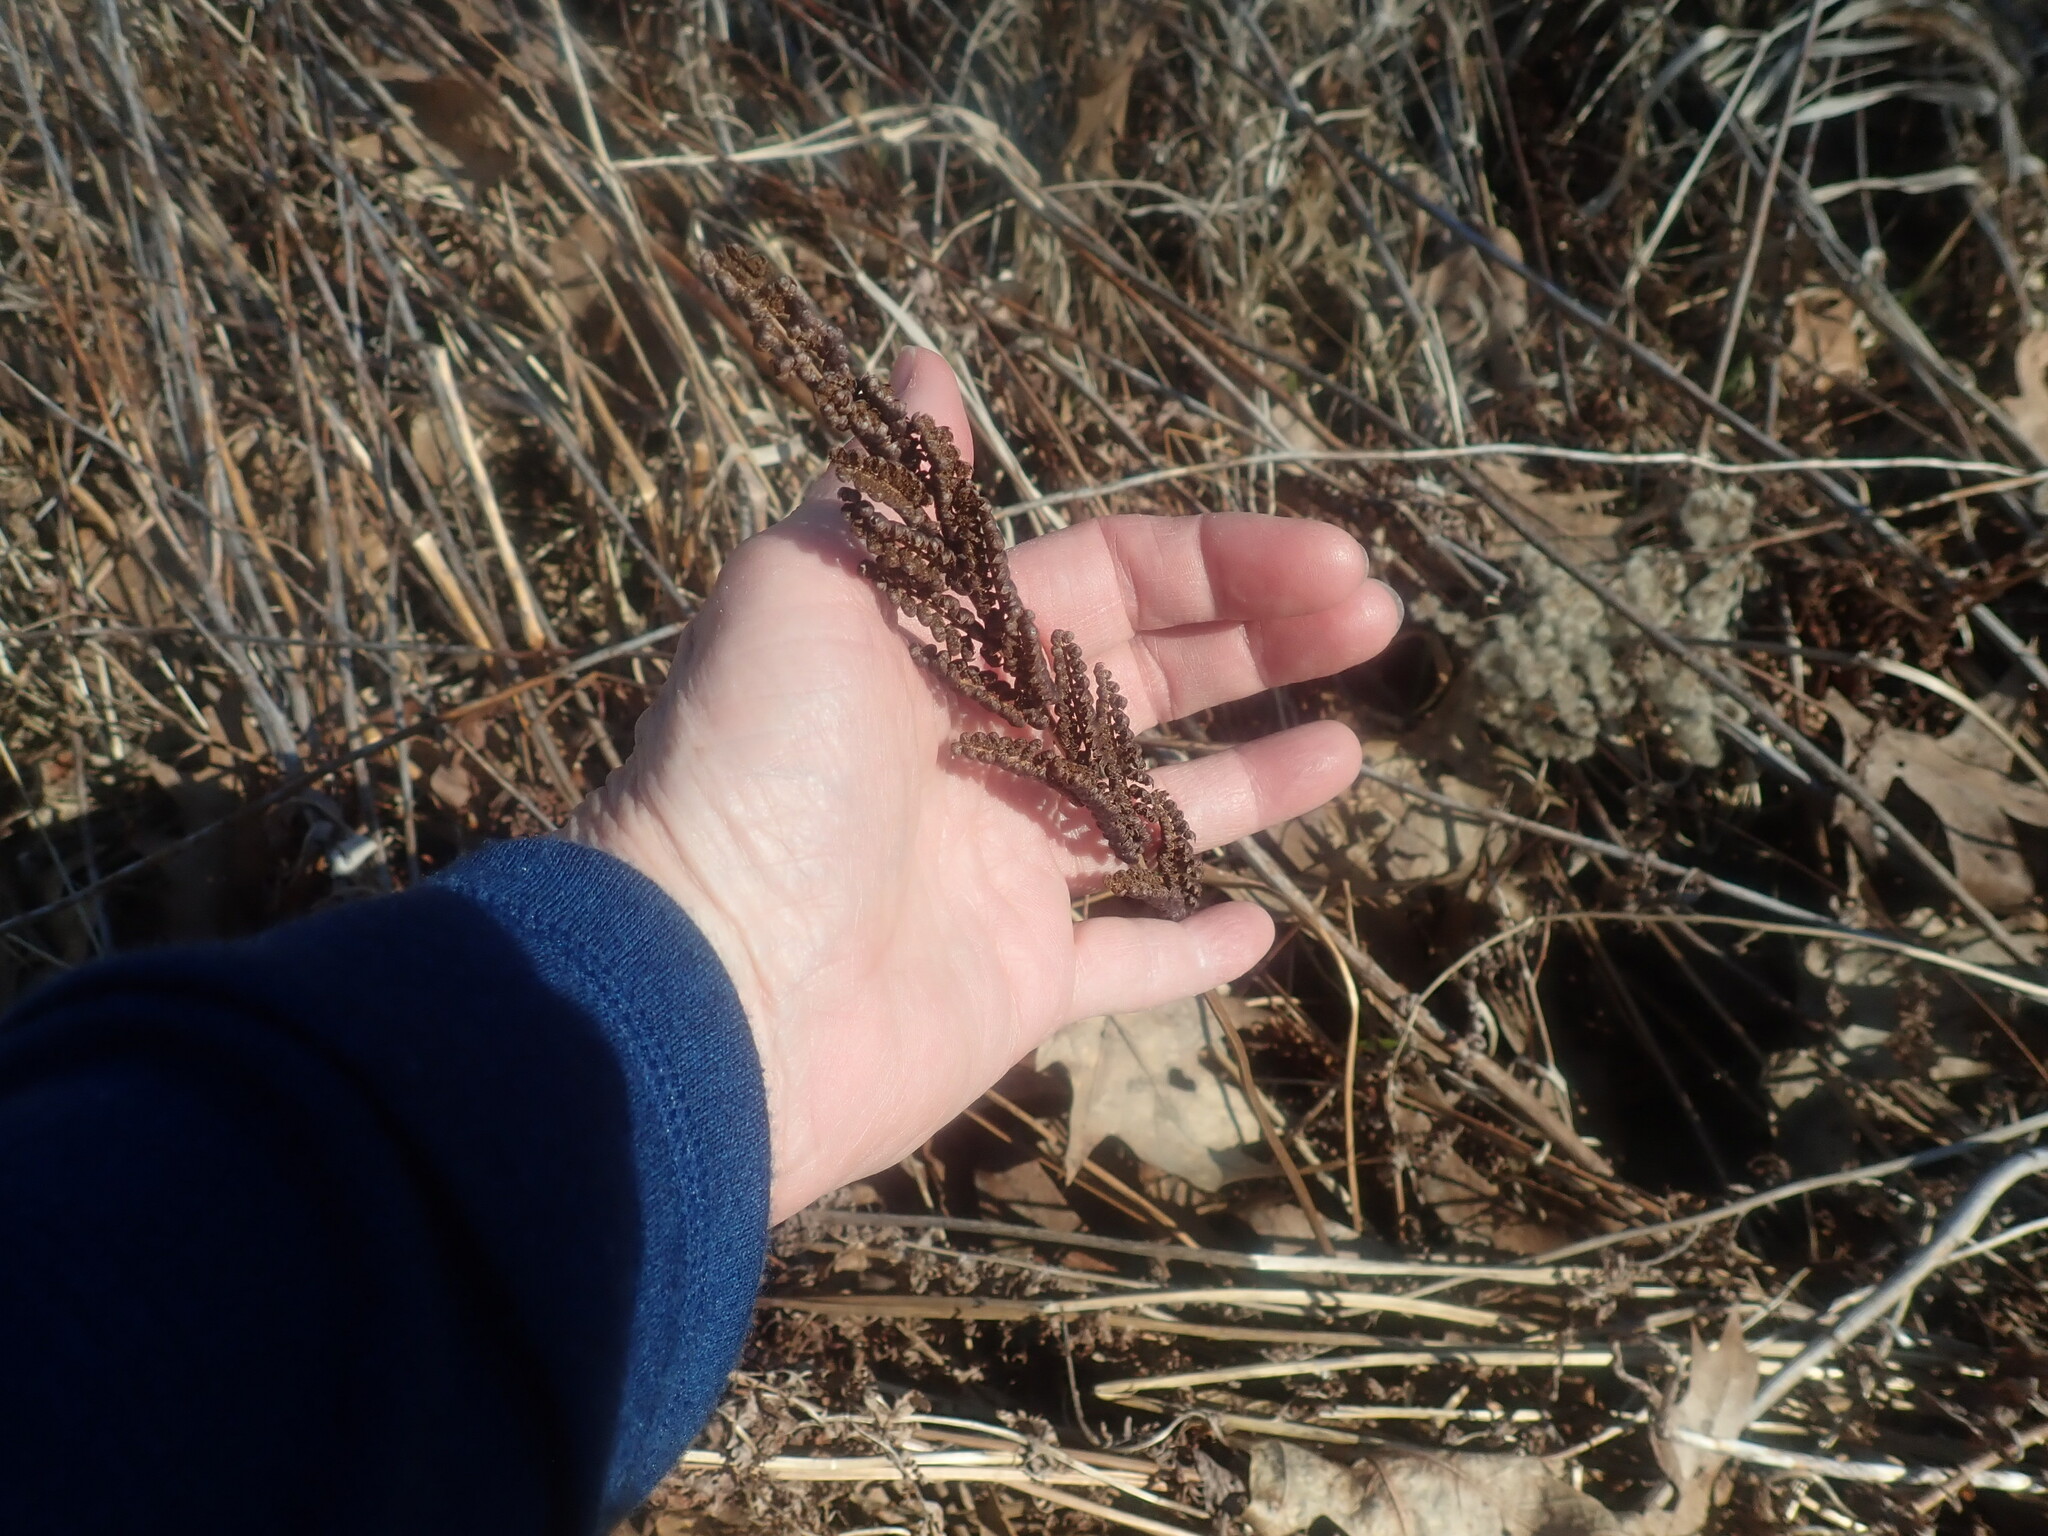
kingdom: Plantae
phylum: Tracheophyta
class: Polypodiopsida
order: Polypodiales
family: Onocleaceae
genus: Onoclea
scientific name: Onoclea sensibilis
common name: Sensitive fern
